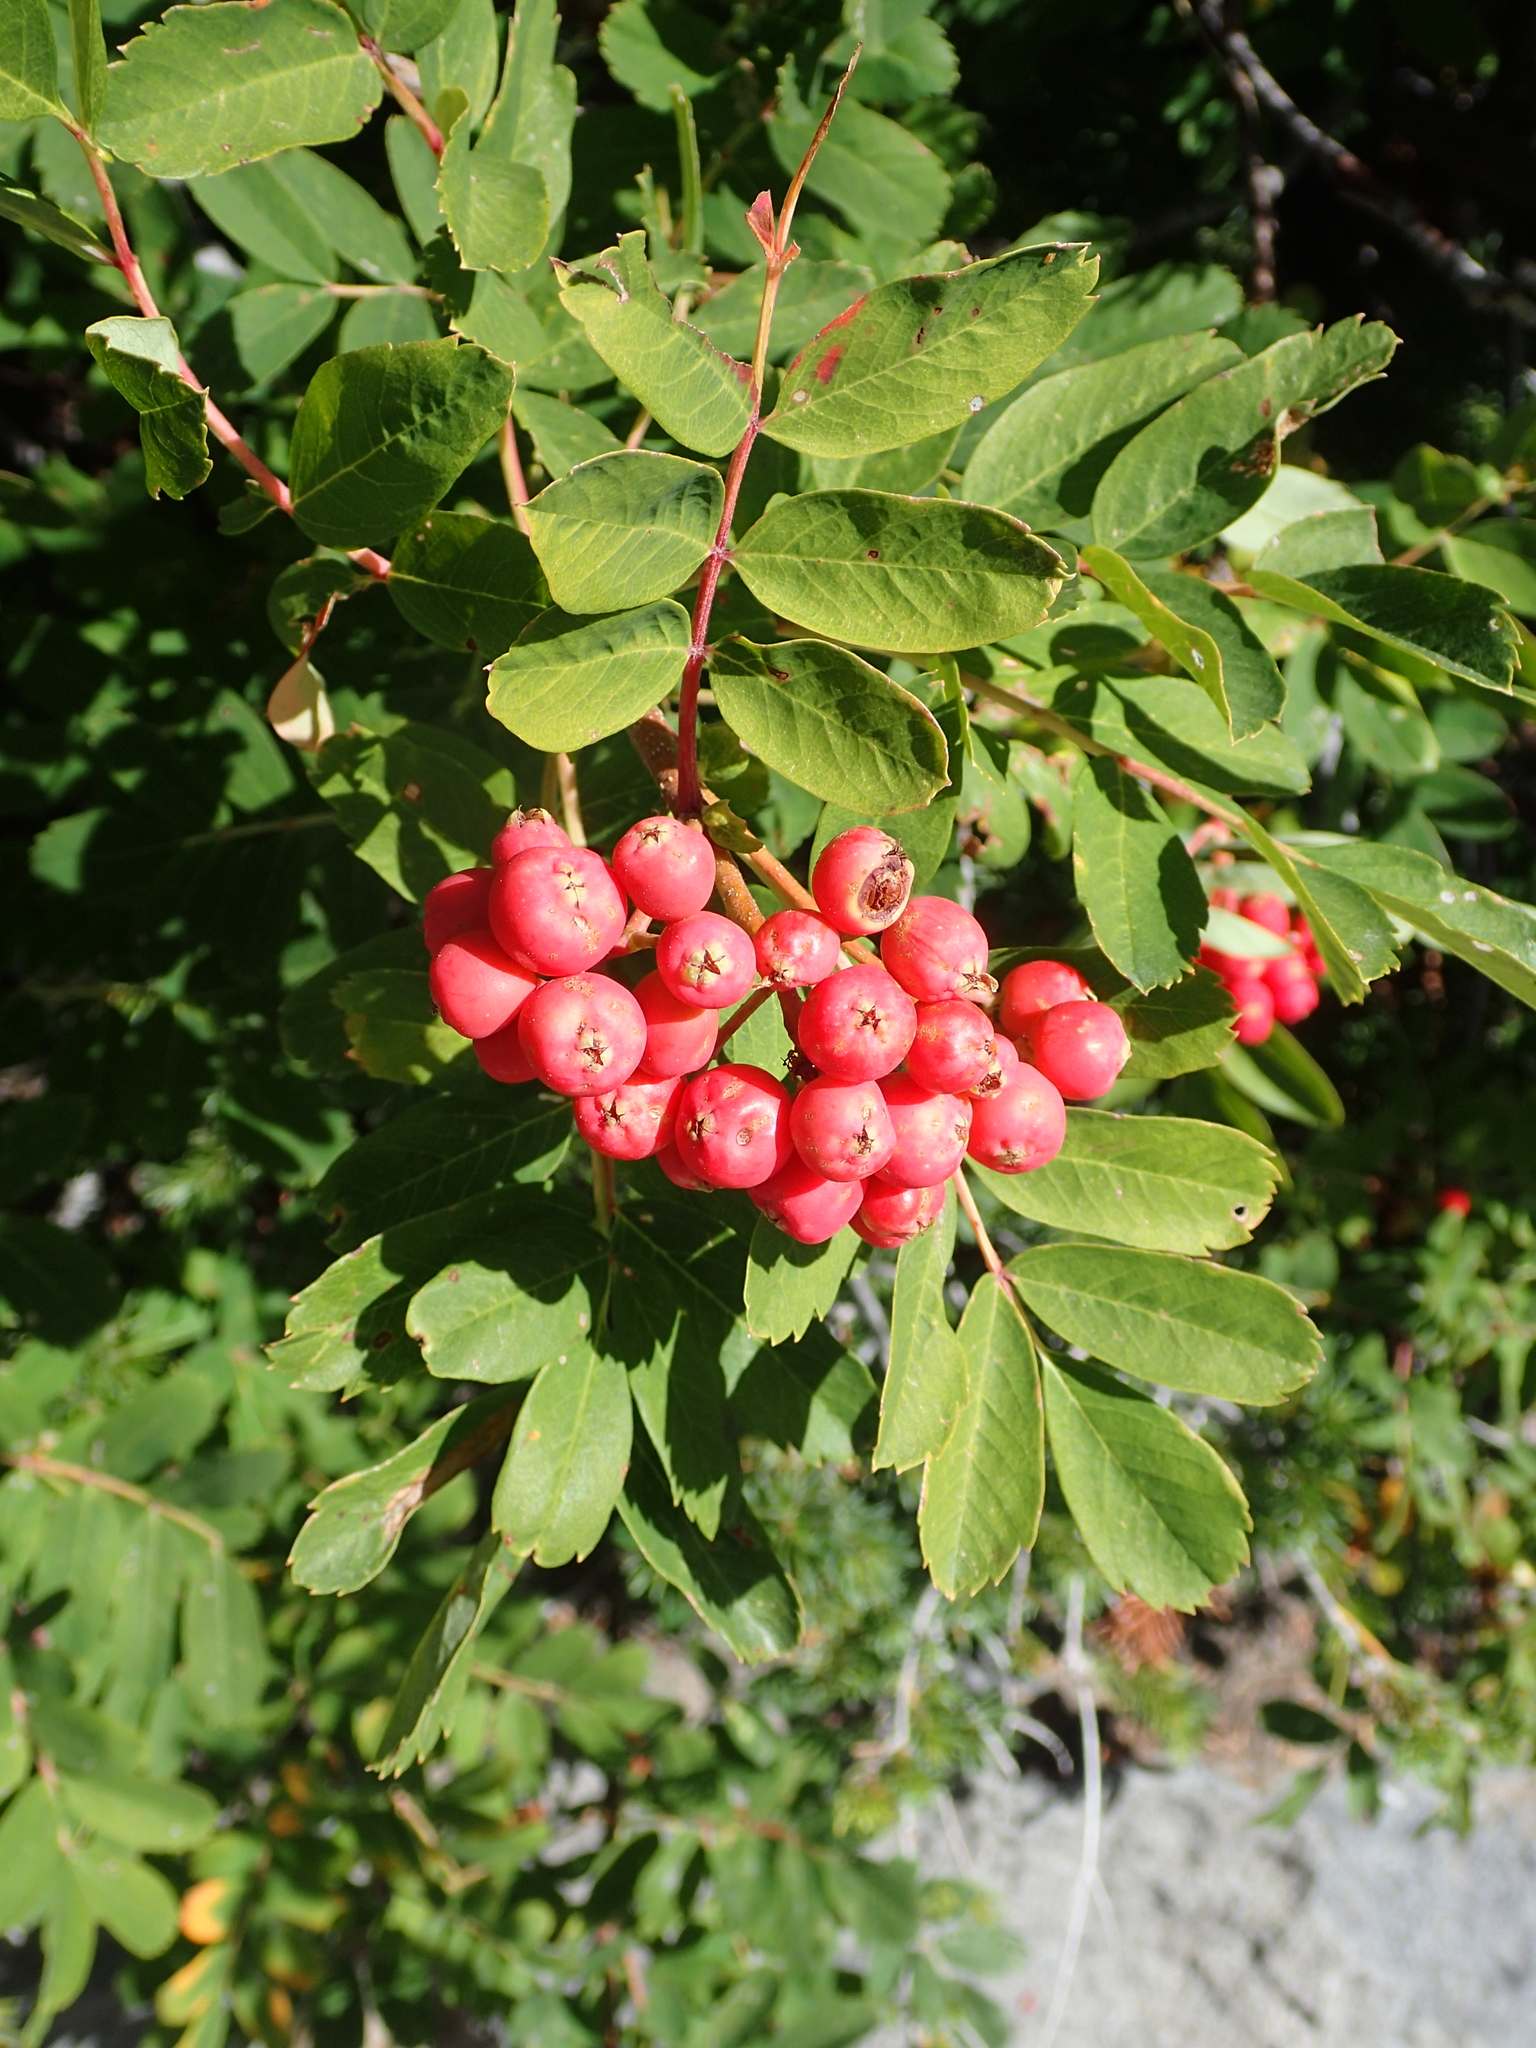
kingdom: Plantae
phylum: Tracheophyta
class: Magnoliopsida
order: Rosales
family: Rosaceae
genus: Sorbus
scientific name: Sorbus occidentalis
